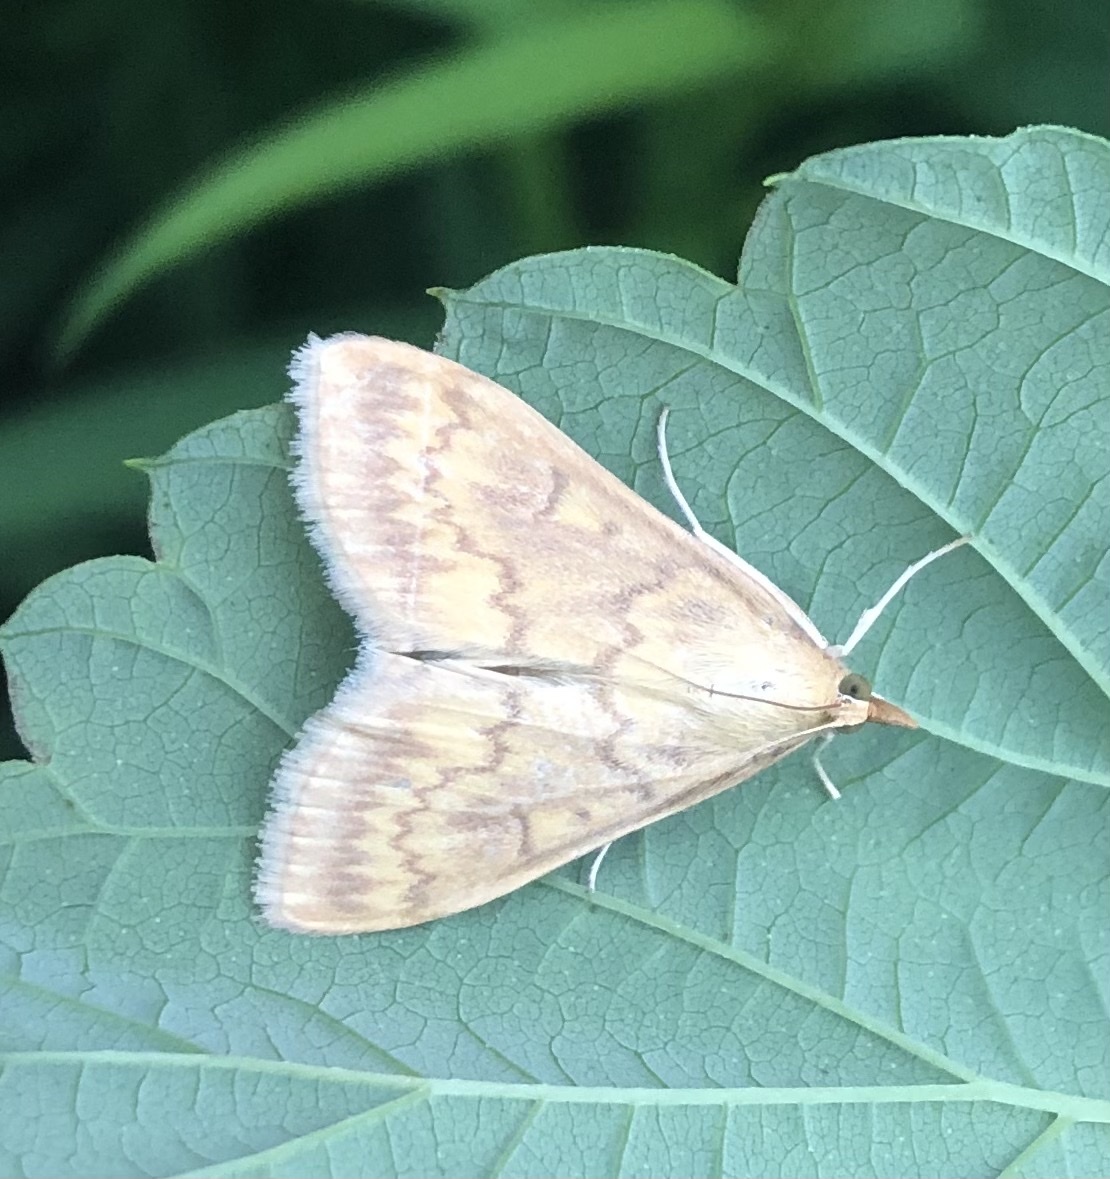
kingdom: Animalia
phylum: Arthropoda
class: Insecta
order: Lepidoptera
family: Crambidae
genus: Ostrinia
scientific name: Ostrinia nubilalis
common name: European corn borer
